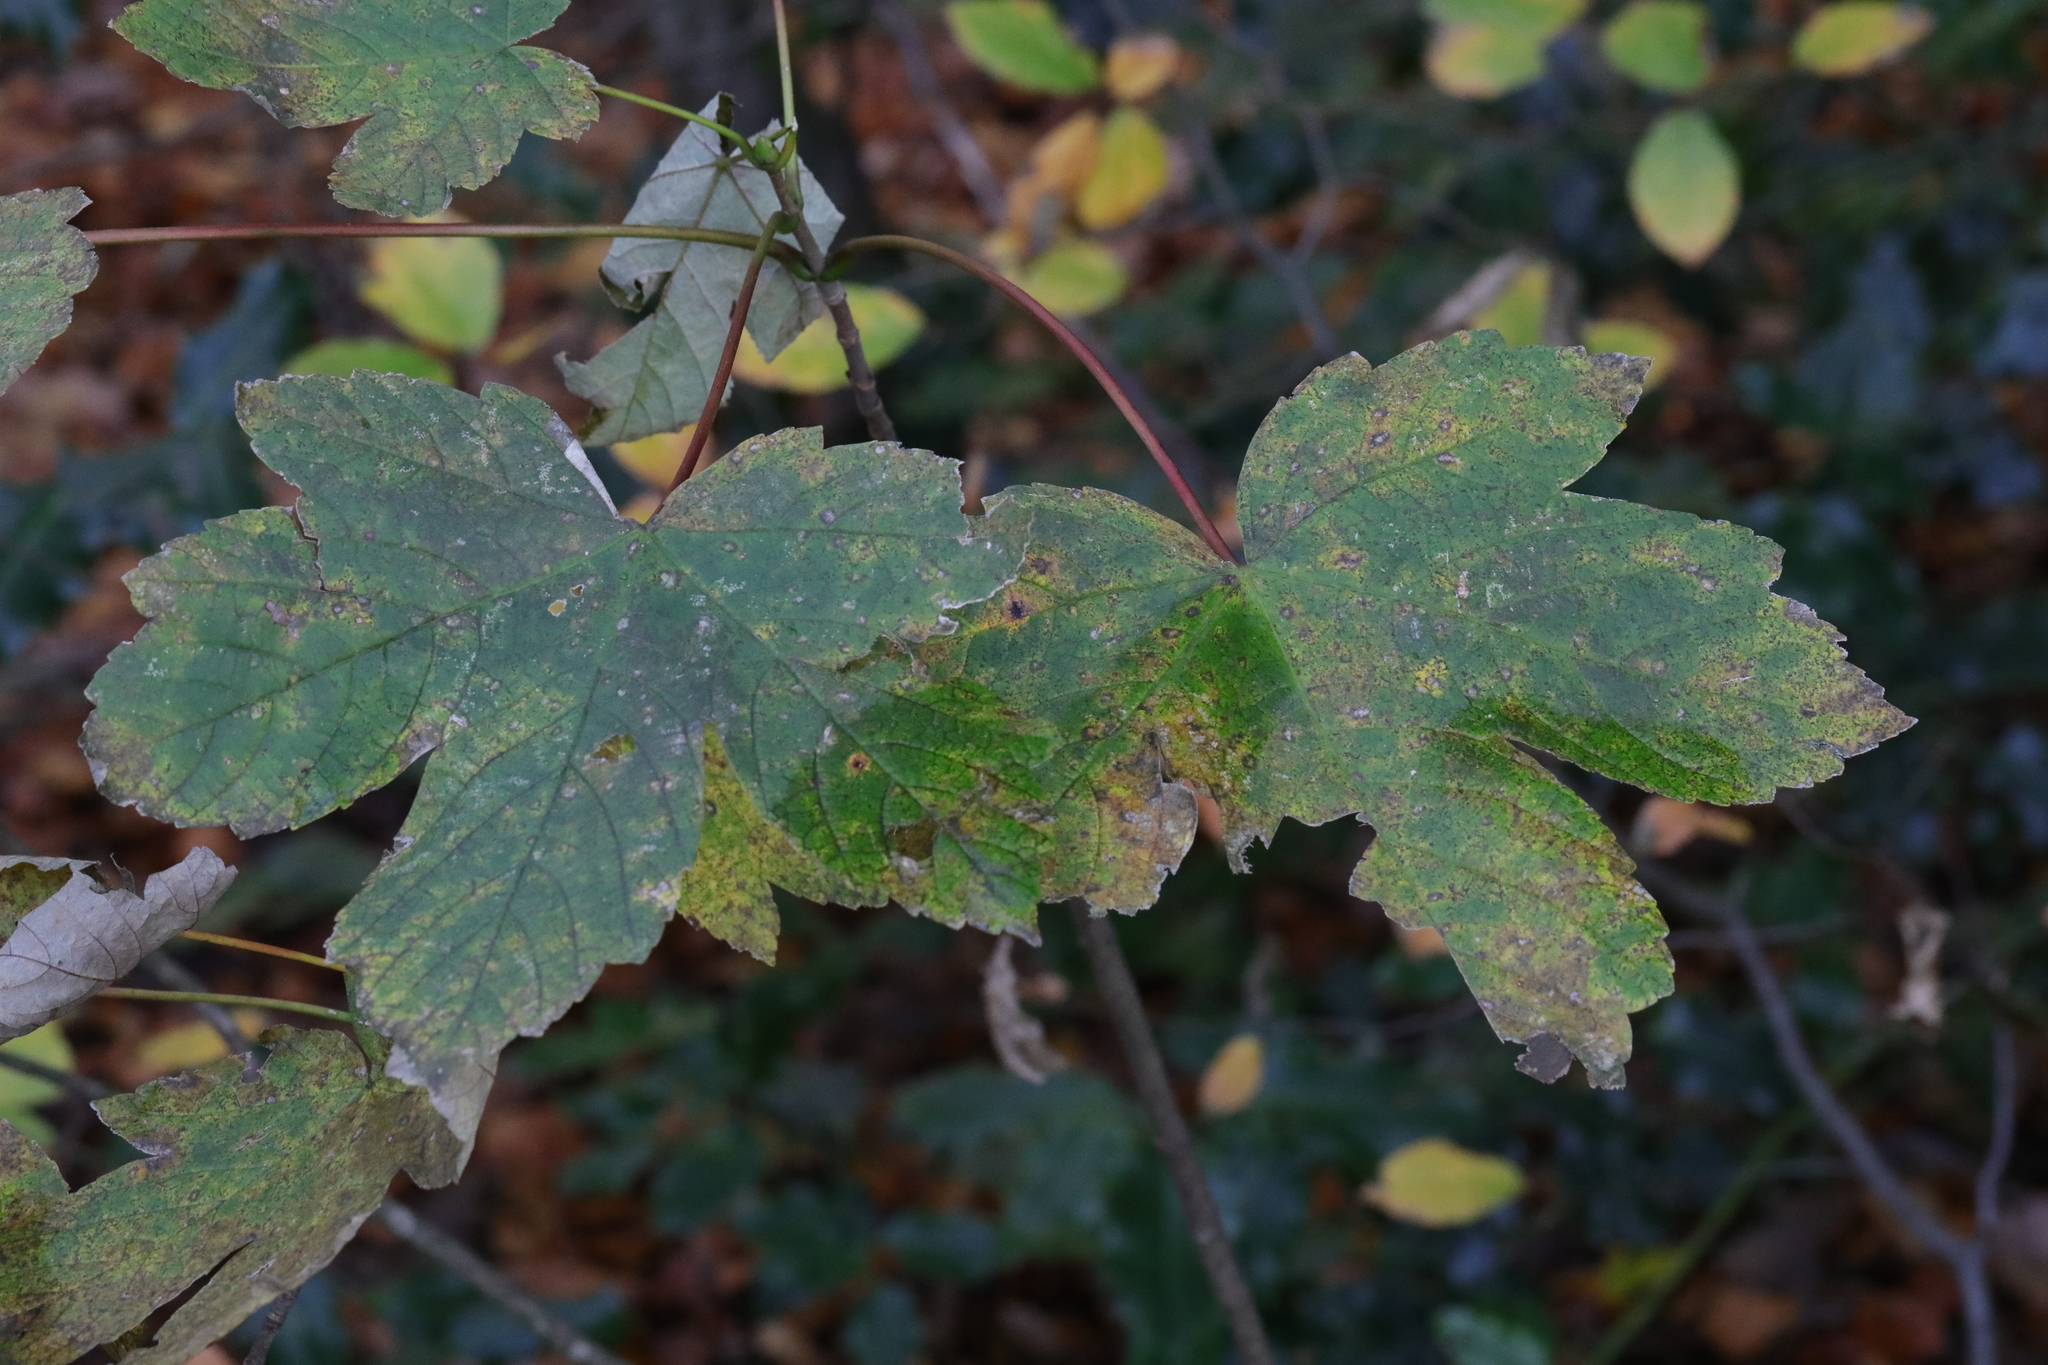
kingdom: Plantae
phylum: Tracheophyta
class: Magnoliopsida
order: Sapindales
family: Sapindaceae
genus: Acer
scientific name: Acer pseudoplatanus
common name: Sycamore
